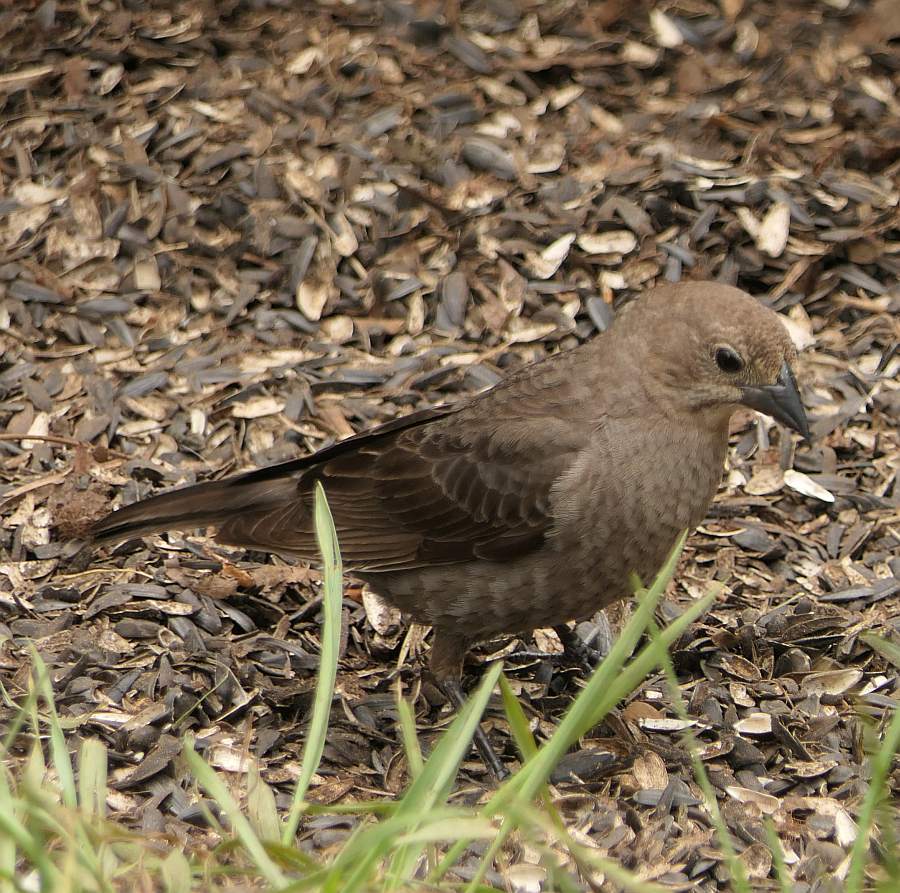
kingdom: Animalia
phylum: Chordata
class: Aves
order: Passeriformes
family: Icteridae
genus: Molothrus
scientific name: Molothrus ater
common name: Brown-headed cowbird
